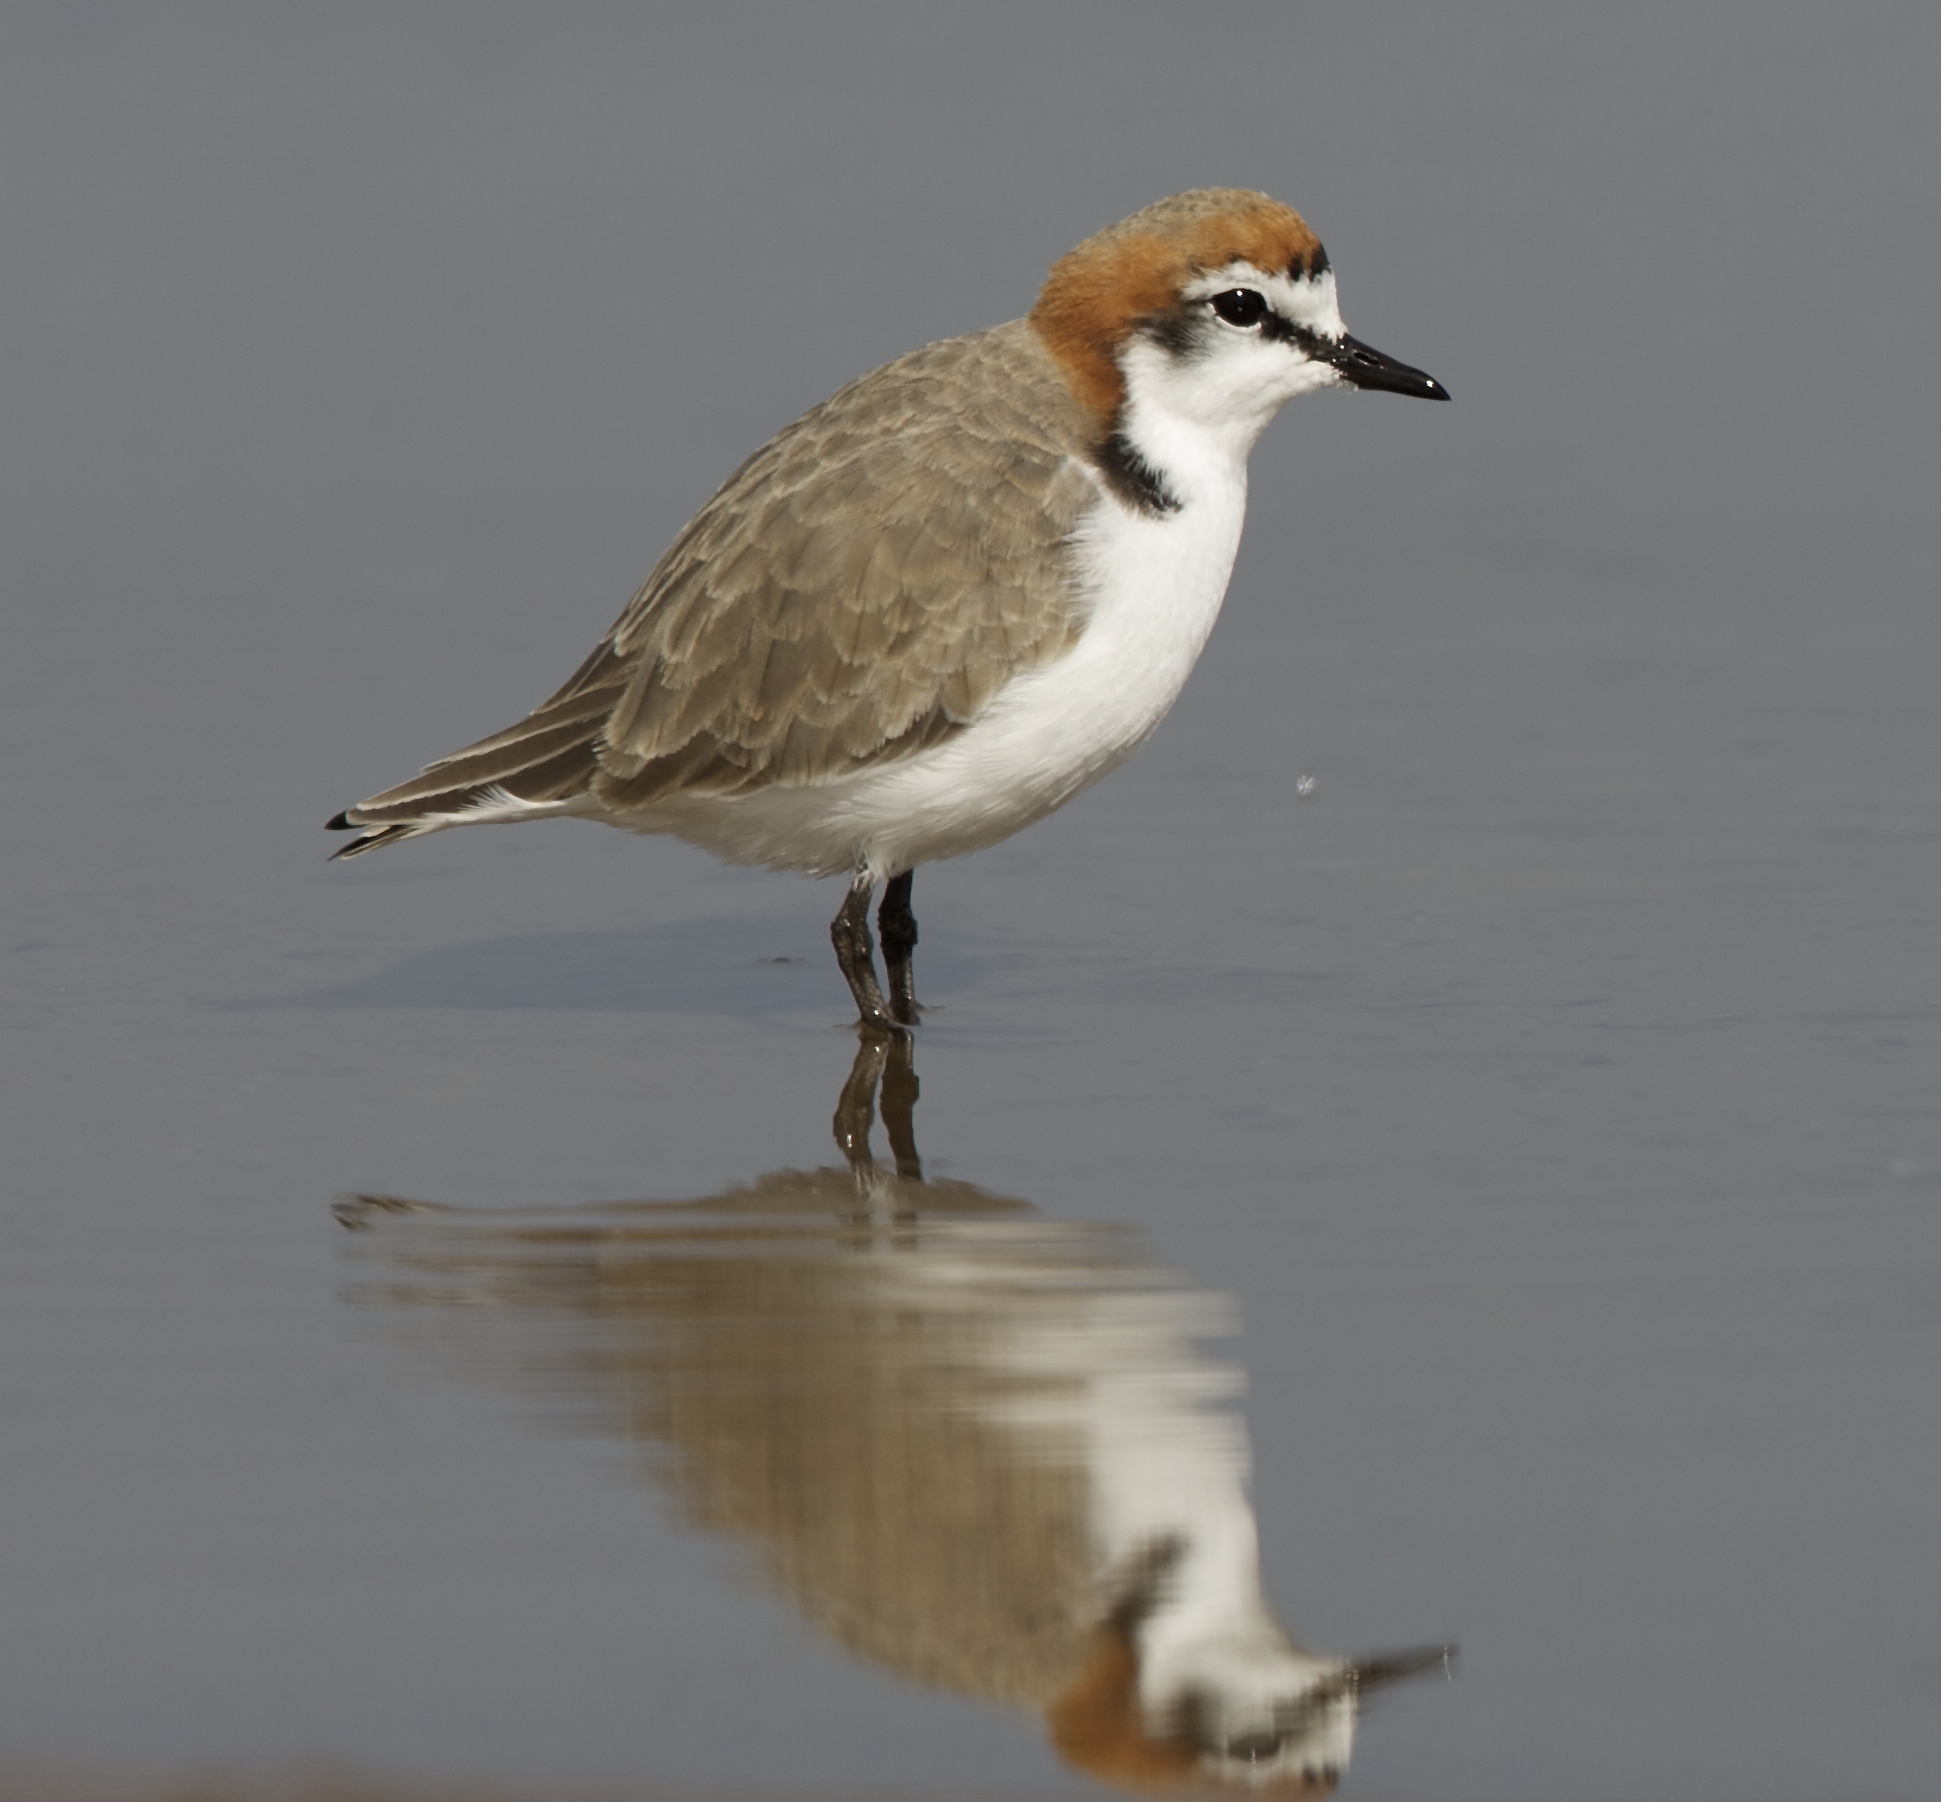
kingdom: Animalia
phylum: Chordata
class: Aves
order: Charadriiformes
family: Charadriidae
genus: Anarhynchus
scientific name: Anarhynchus
